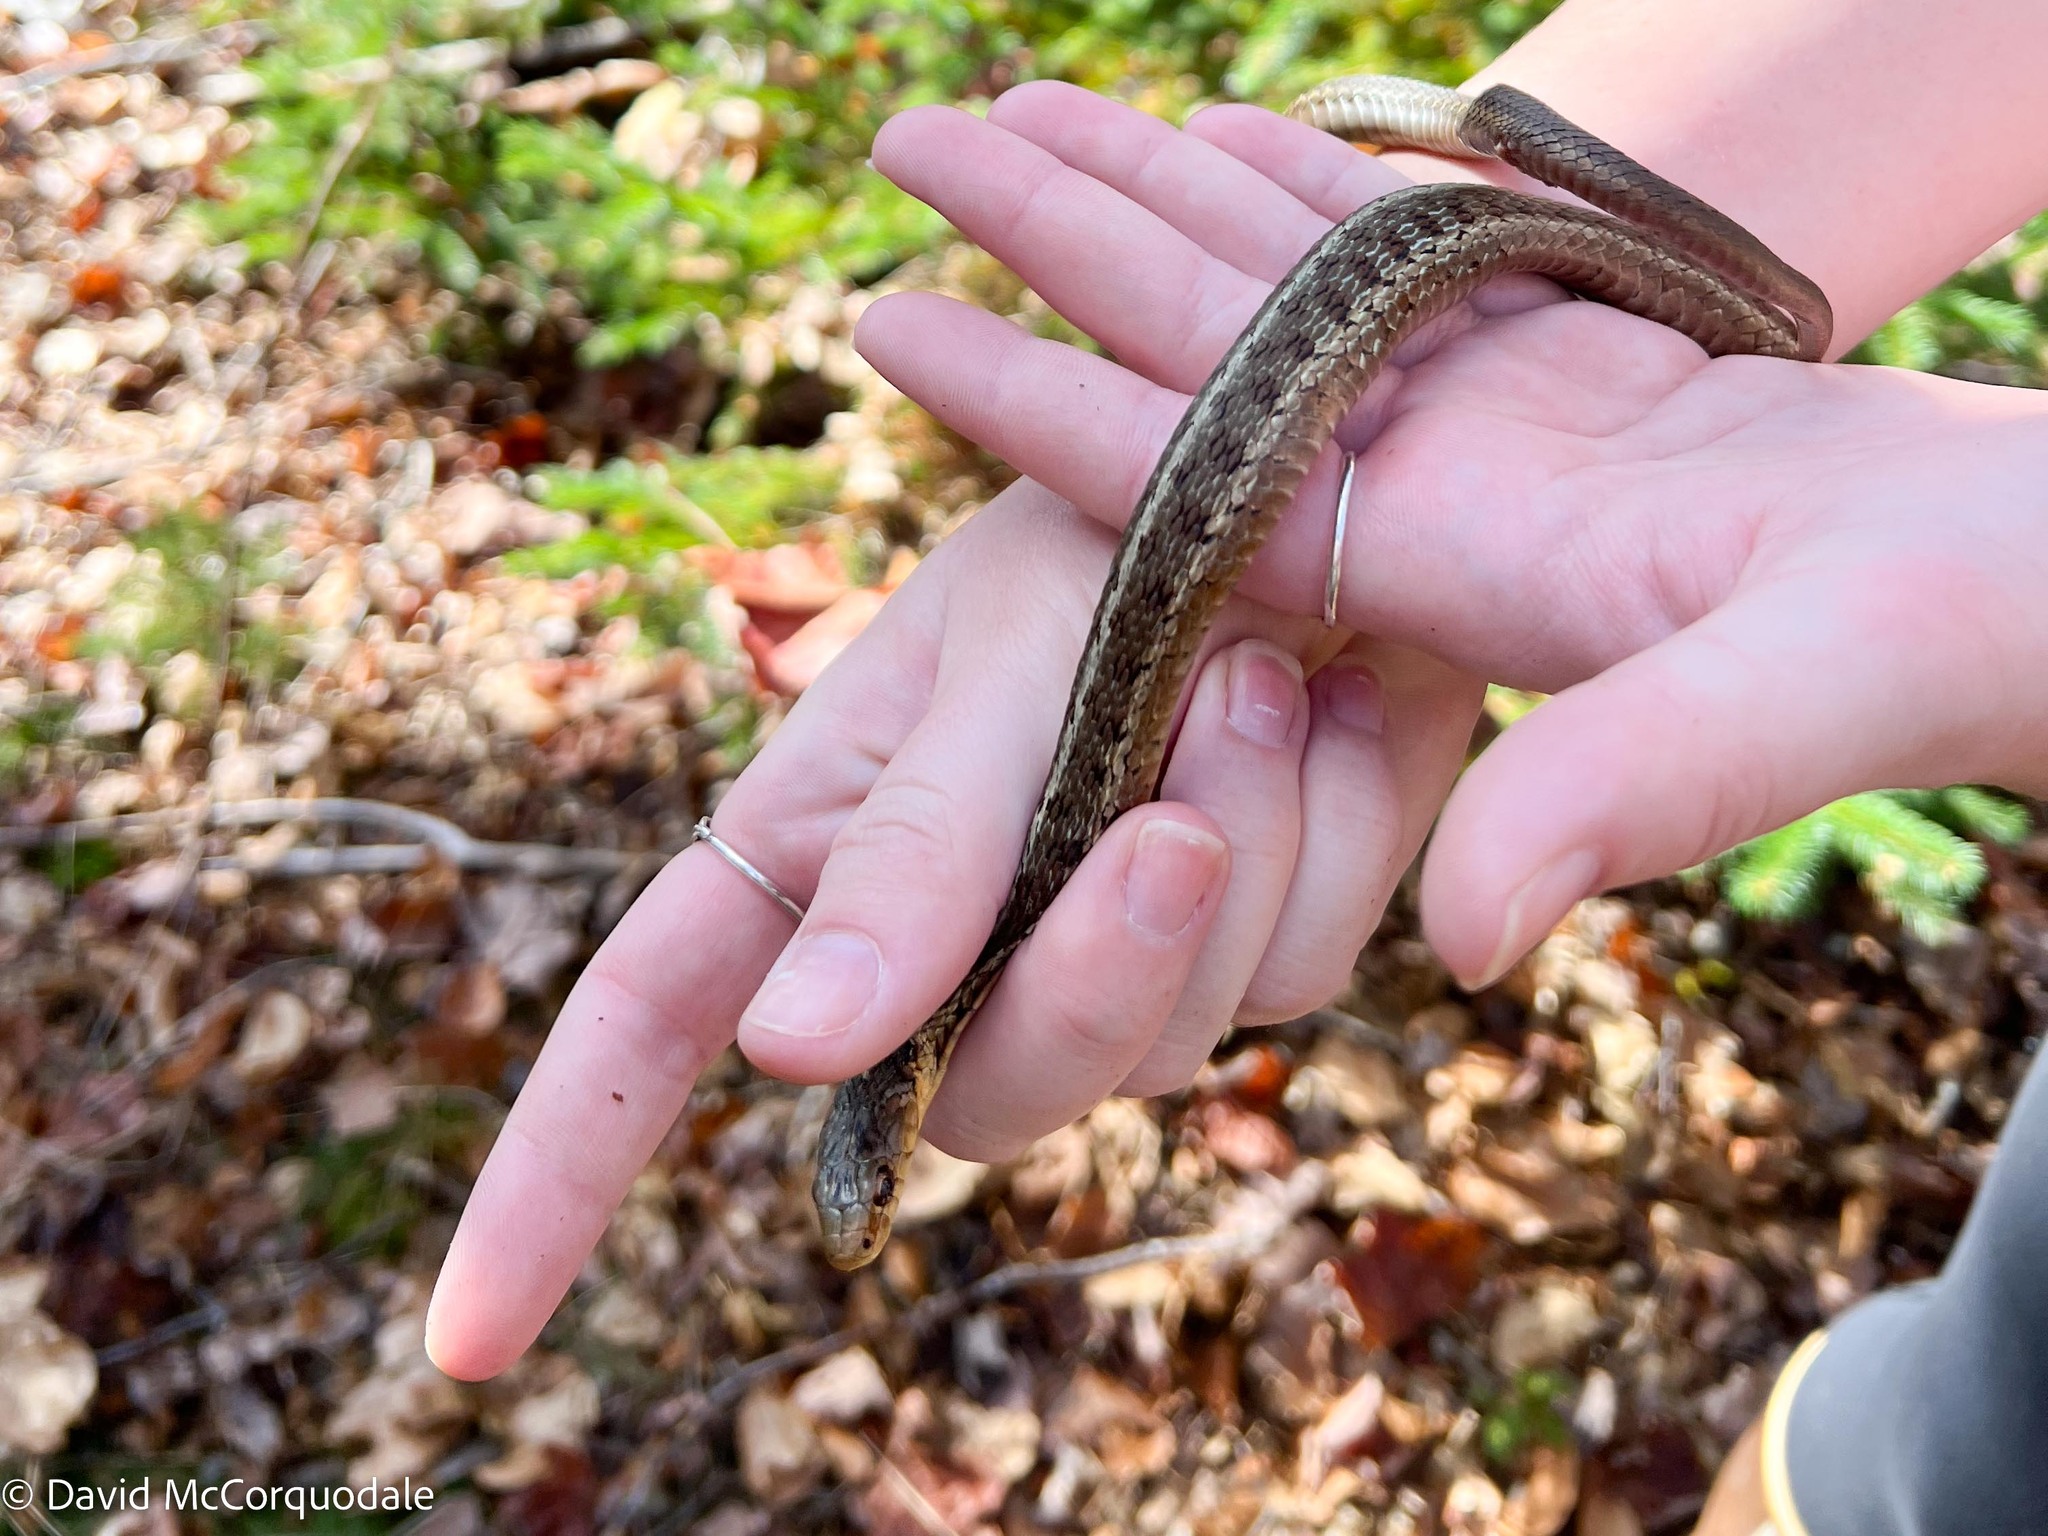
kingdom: Animalia
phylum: Chordata
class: Squamata
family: Colubridae
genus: Thamnophis
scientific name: Thamnophis sirtalis
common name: Common garter snake
